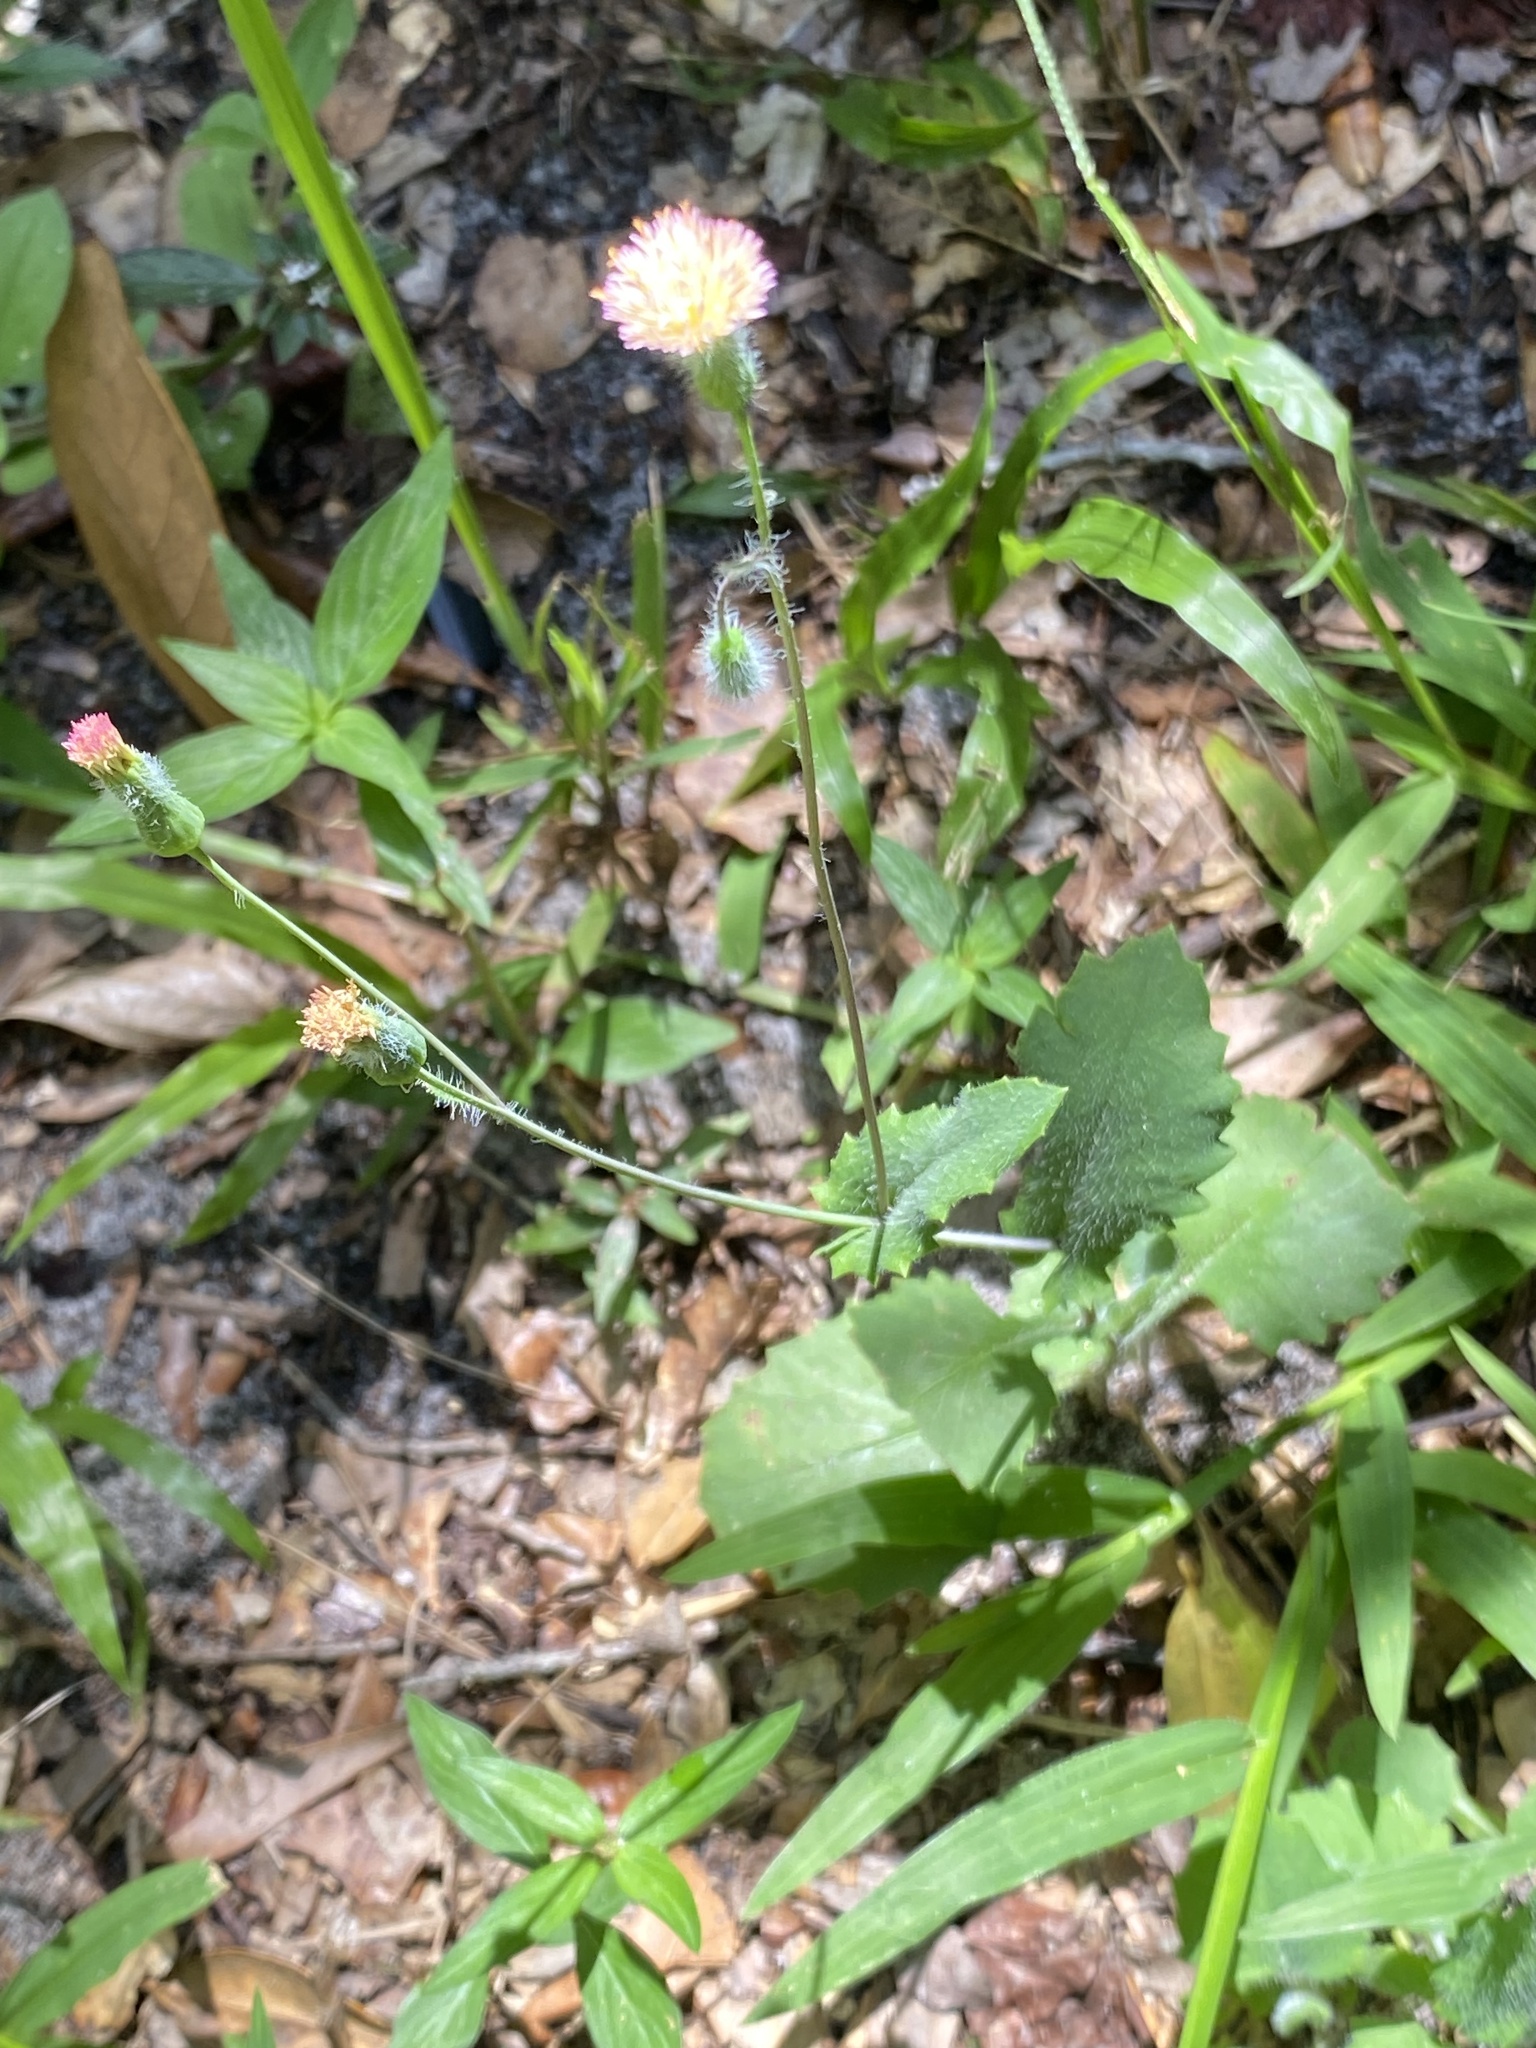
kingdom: Plantae
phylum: Tracheophyta
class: Magnoliopsida
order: Asterales
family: Asteraceae
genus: Emilia
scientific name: Emilia praetermissa
